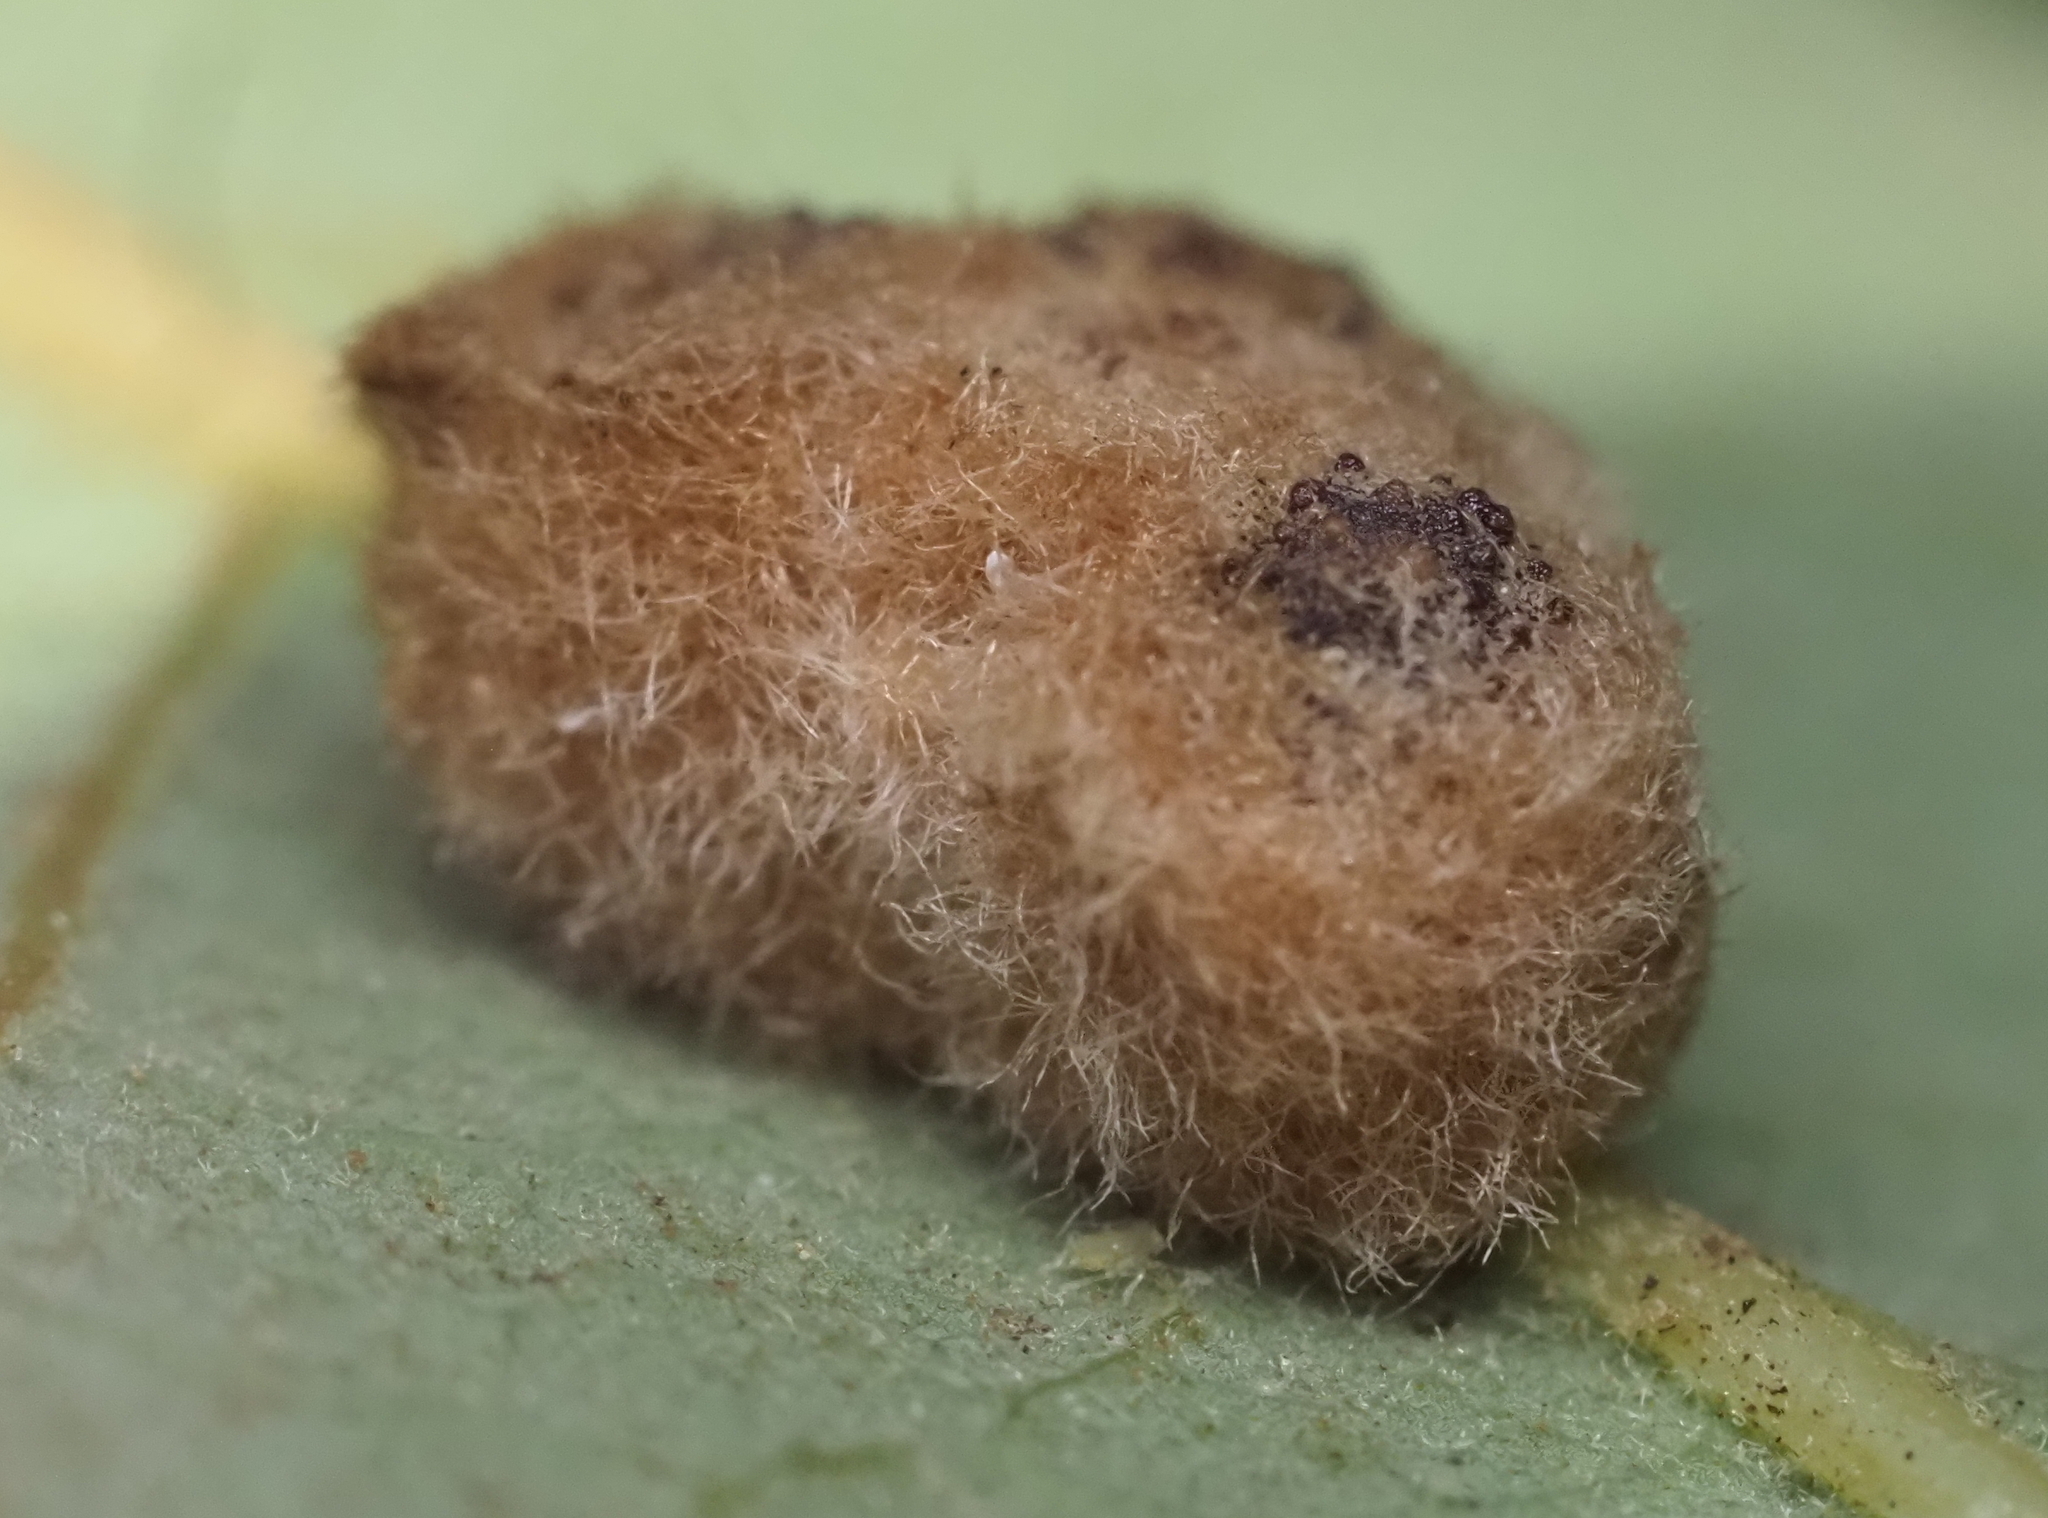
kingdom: Animalia
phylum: Arthropoda
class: Insecta
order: Hymenoptera
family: Cynipidae
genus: Andricus
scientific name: Andricus Druon pattoni
